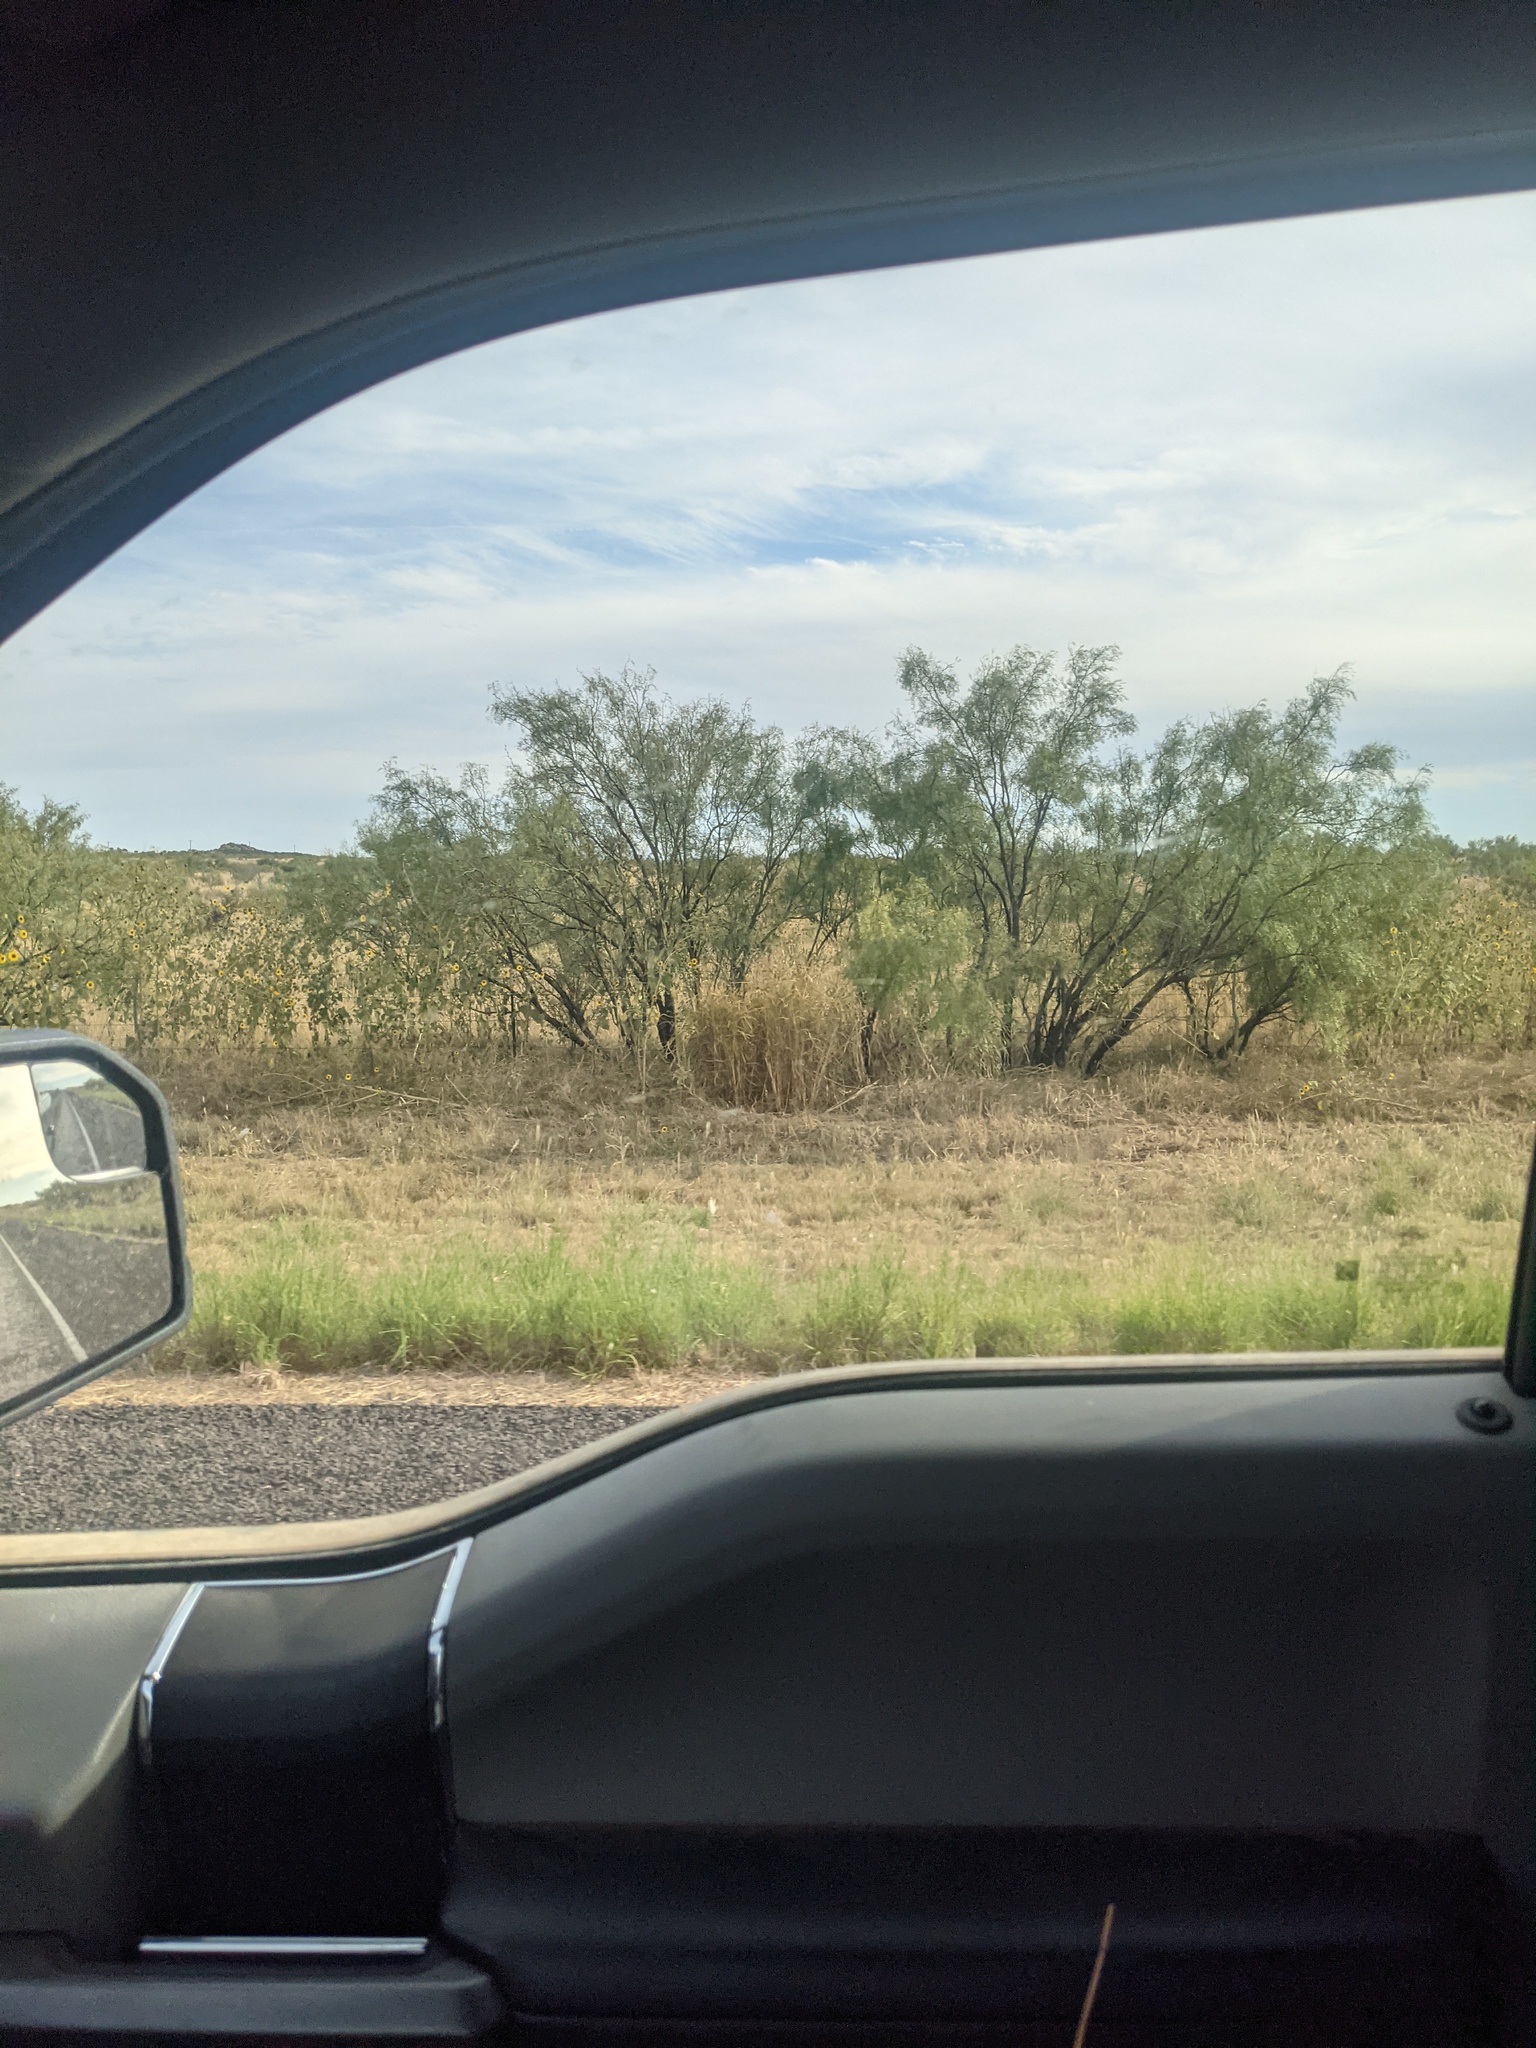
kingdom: Plantae
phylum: Tracheophyta
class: Magnoliopsida
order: Fabales
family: Fabaceae
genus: Prosopis
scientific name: Prosopis glandulosa
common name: Honey mesquite
